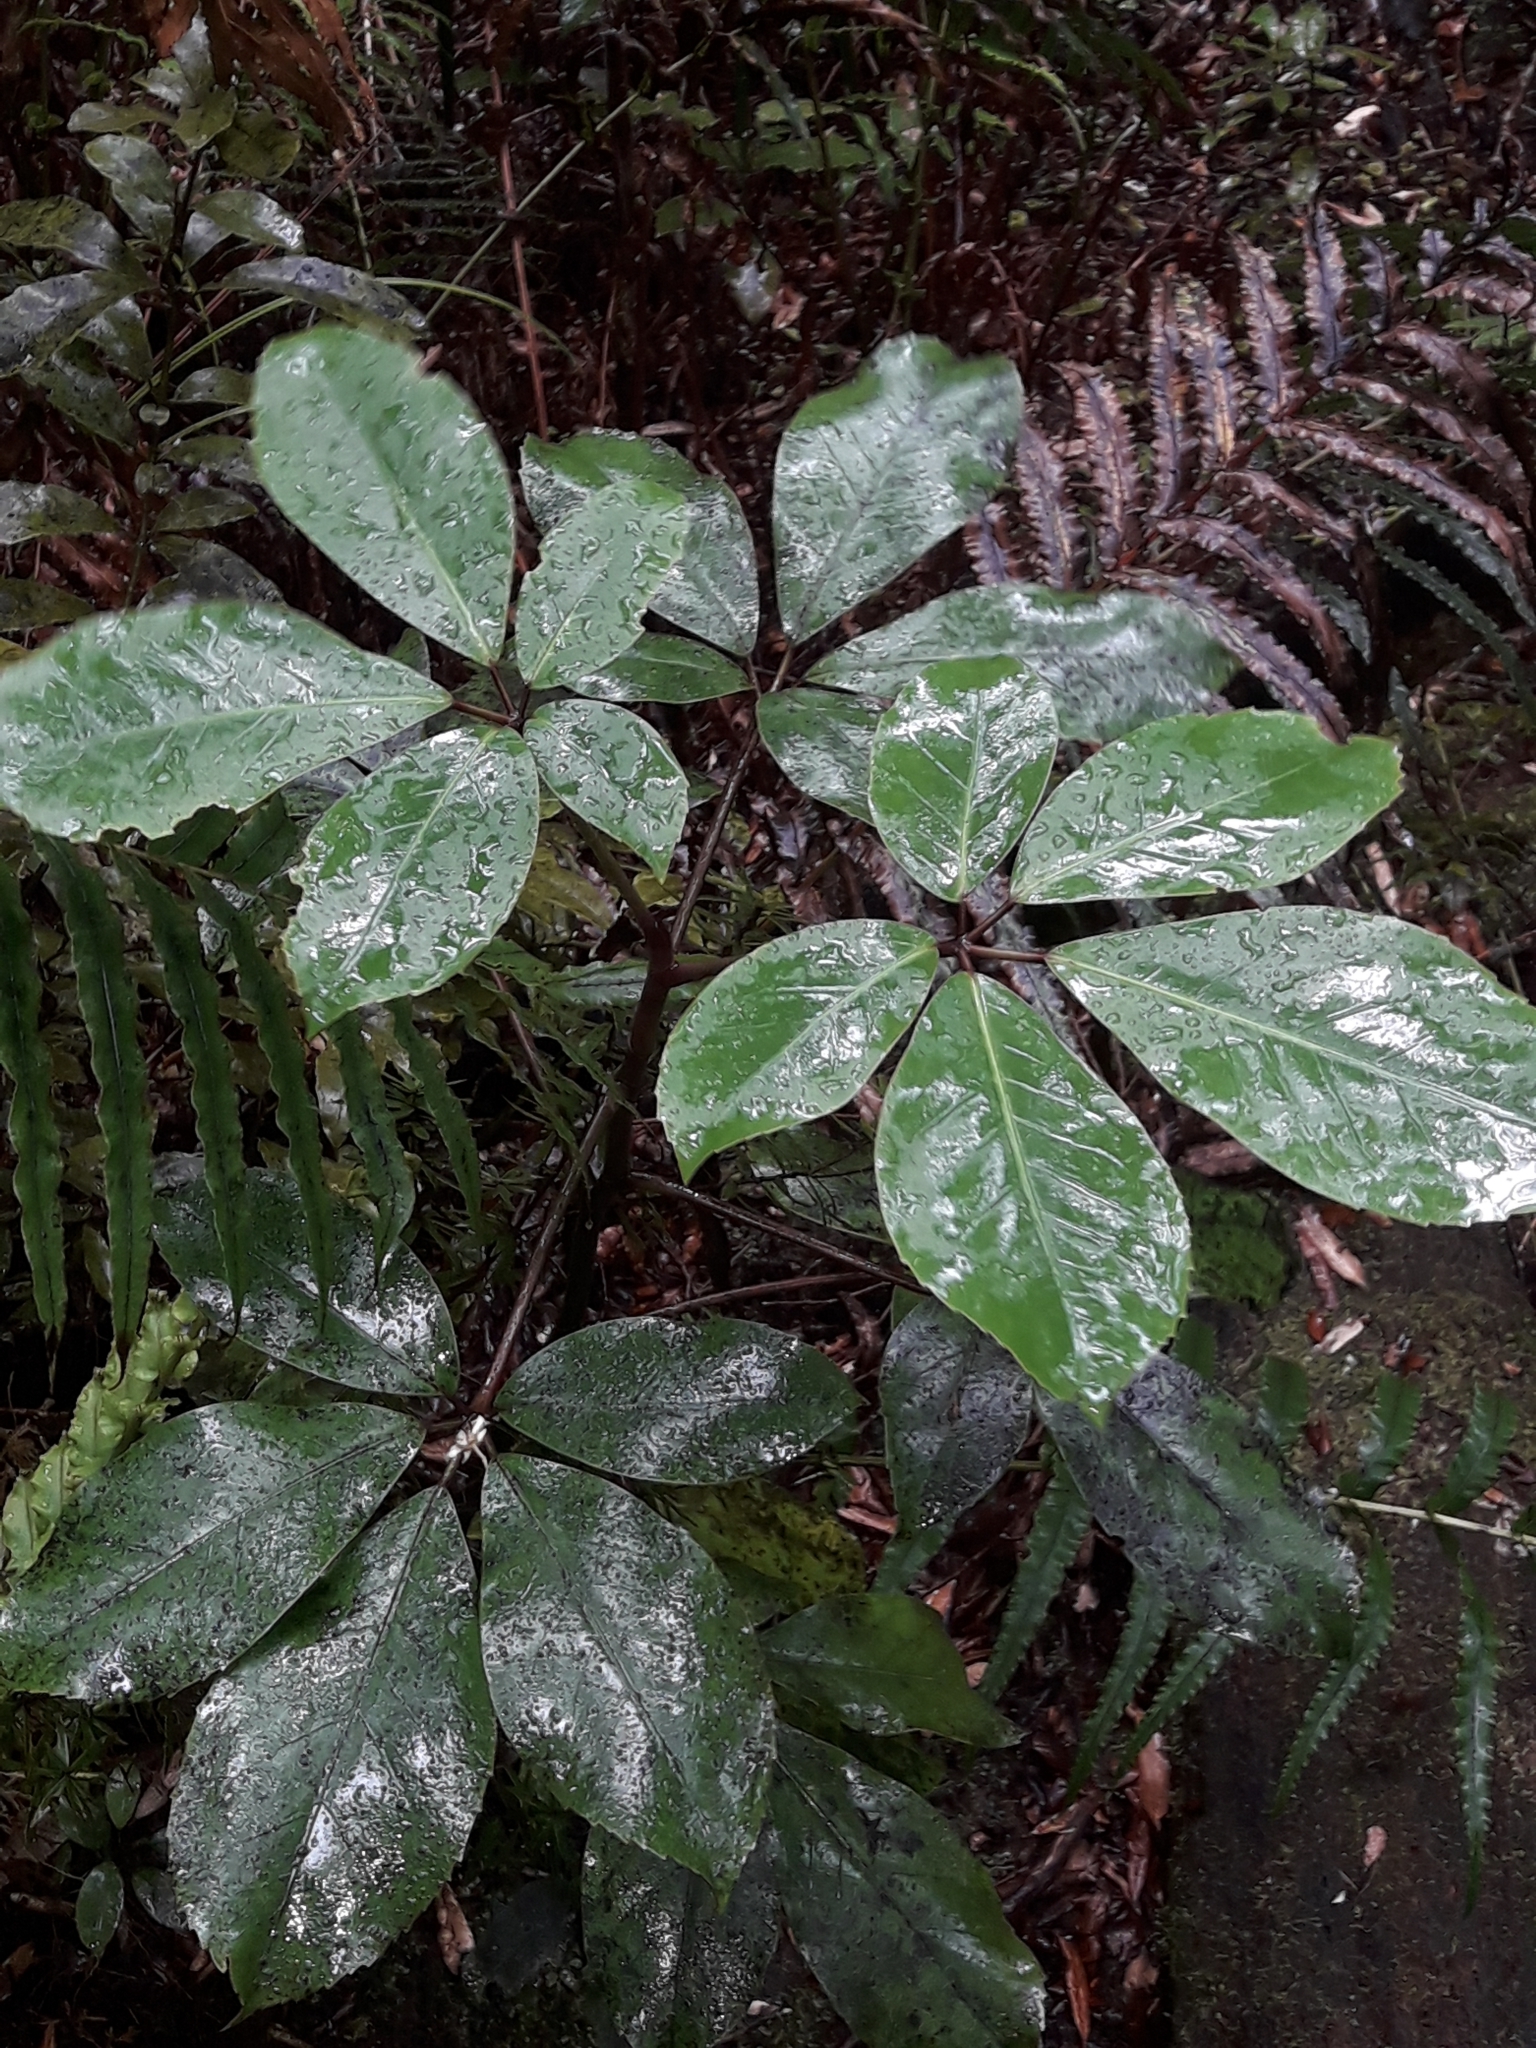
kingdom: Plantae
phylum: Tracheophyta
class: Magnoliopsida
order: Apiales
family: Araliaceae
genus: Neopanax
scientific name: Neopanax laetus
